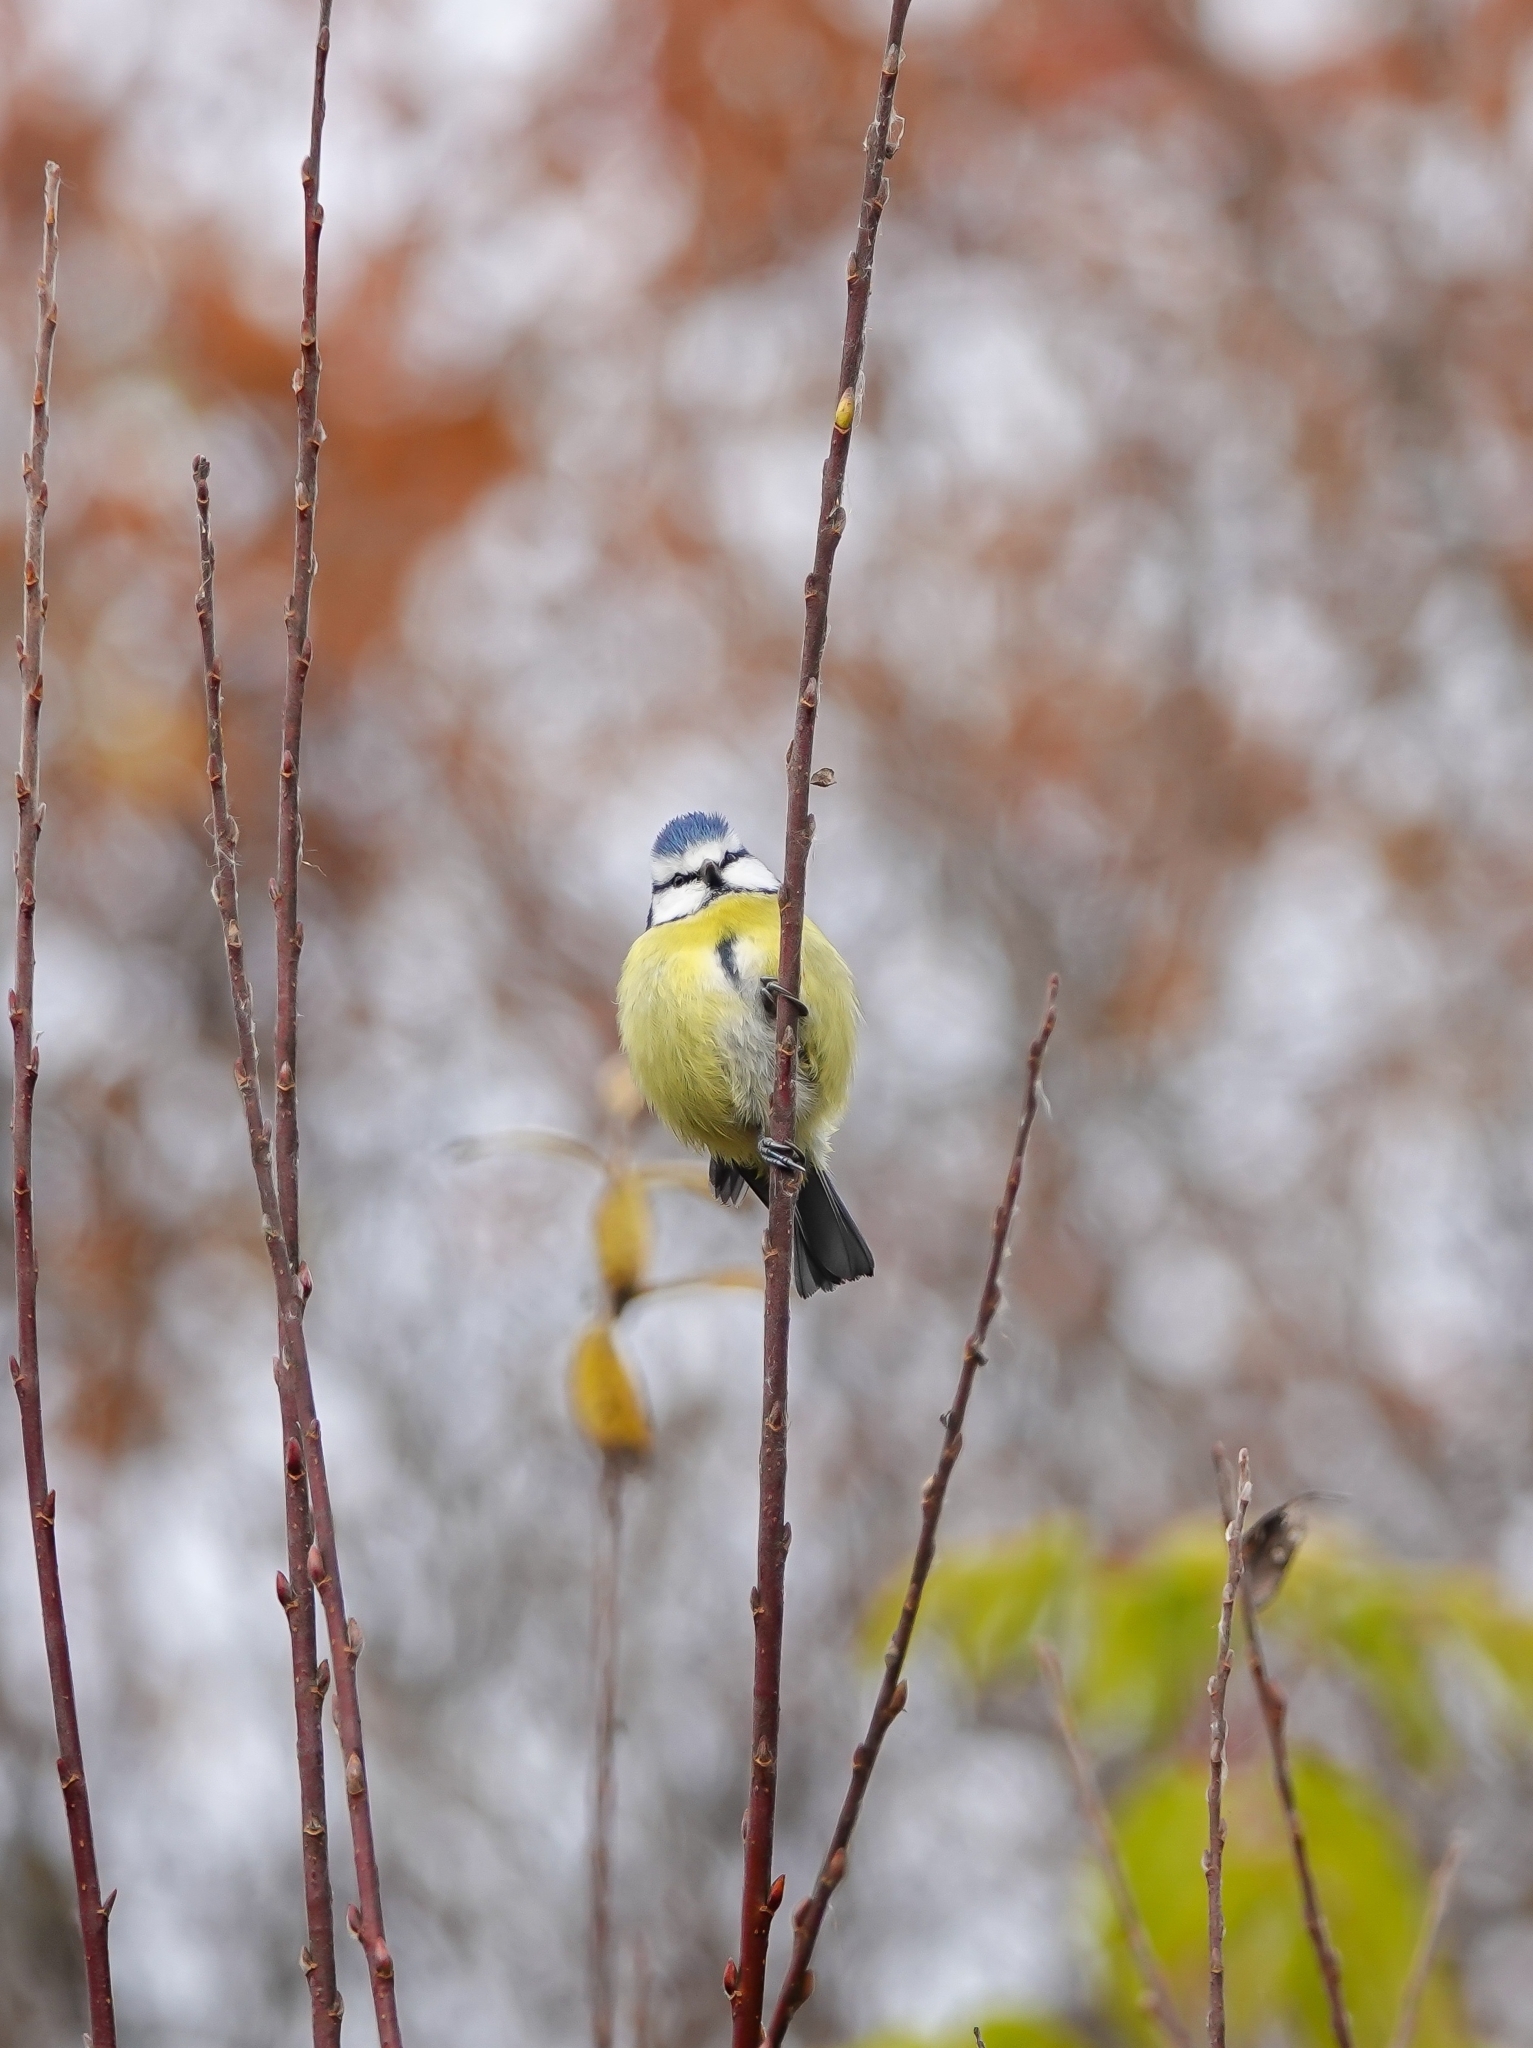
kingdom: Animalia
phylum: Chordata
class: Aves
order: Passeriformes
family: Paridae
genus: Cyanistes
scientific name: Cyanistes caeruleus
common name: Eurasian blue tit
